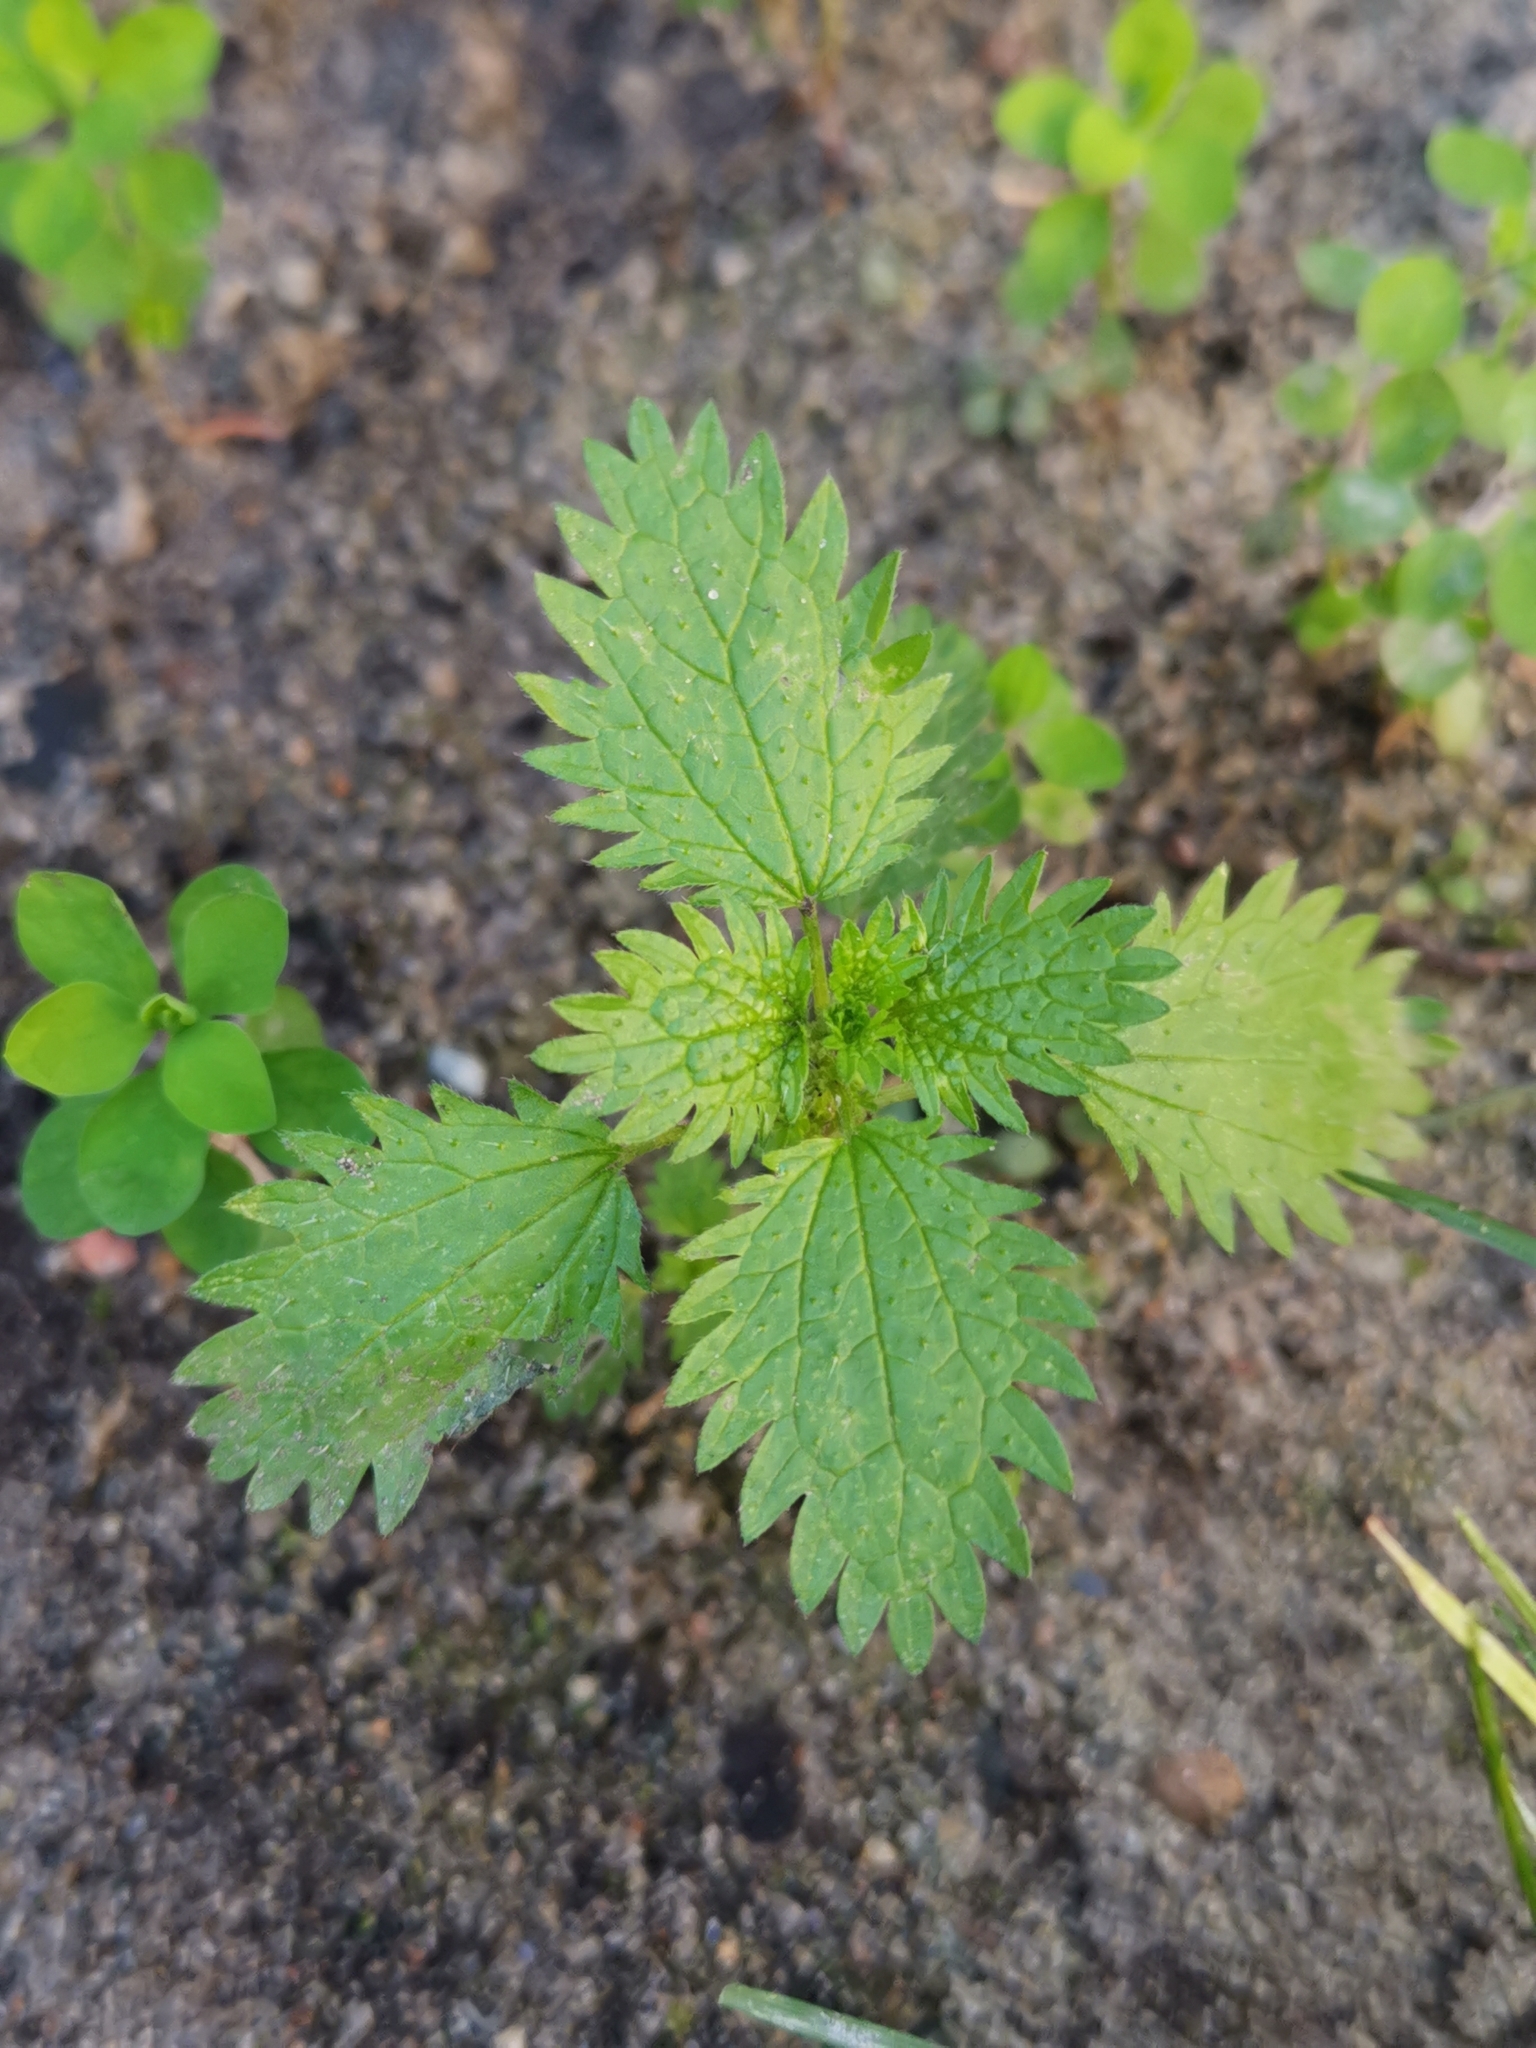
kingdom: Plantae
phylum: Tracheophyta
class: Magnoliopsida
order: Rosales
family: Urticaceae
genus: Urtica
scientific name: Urtica urens
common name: Dwarf nettle
